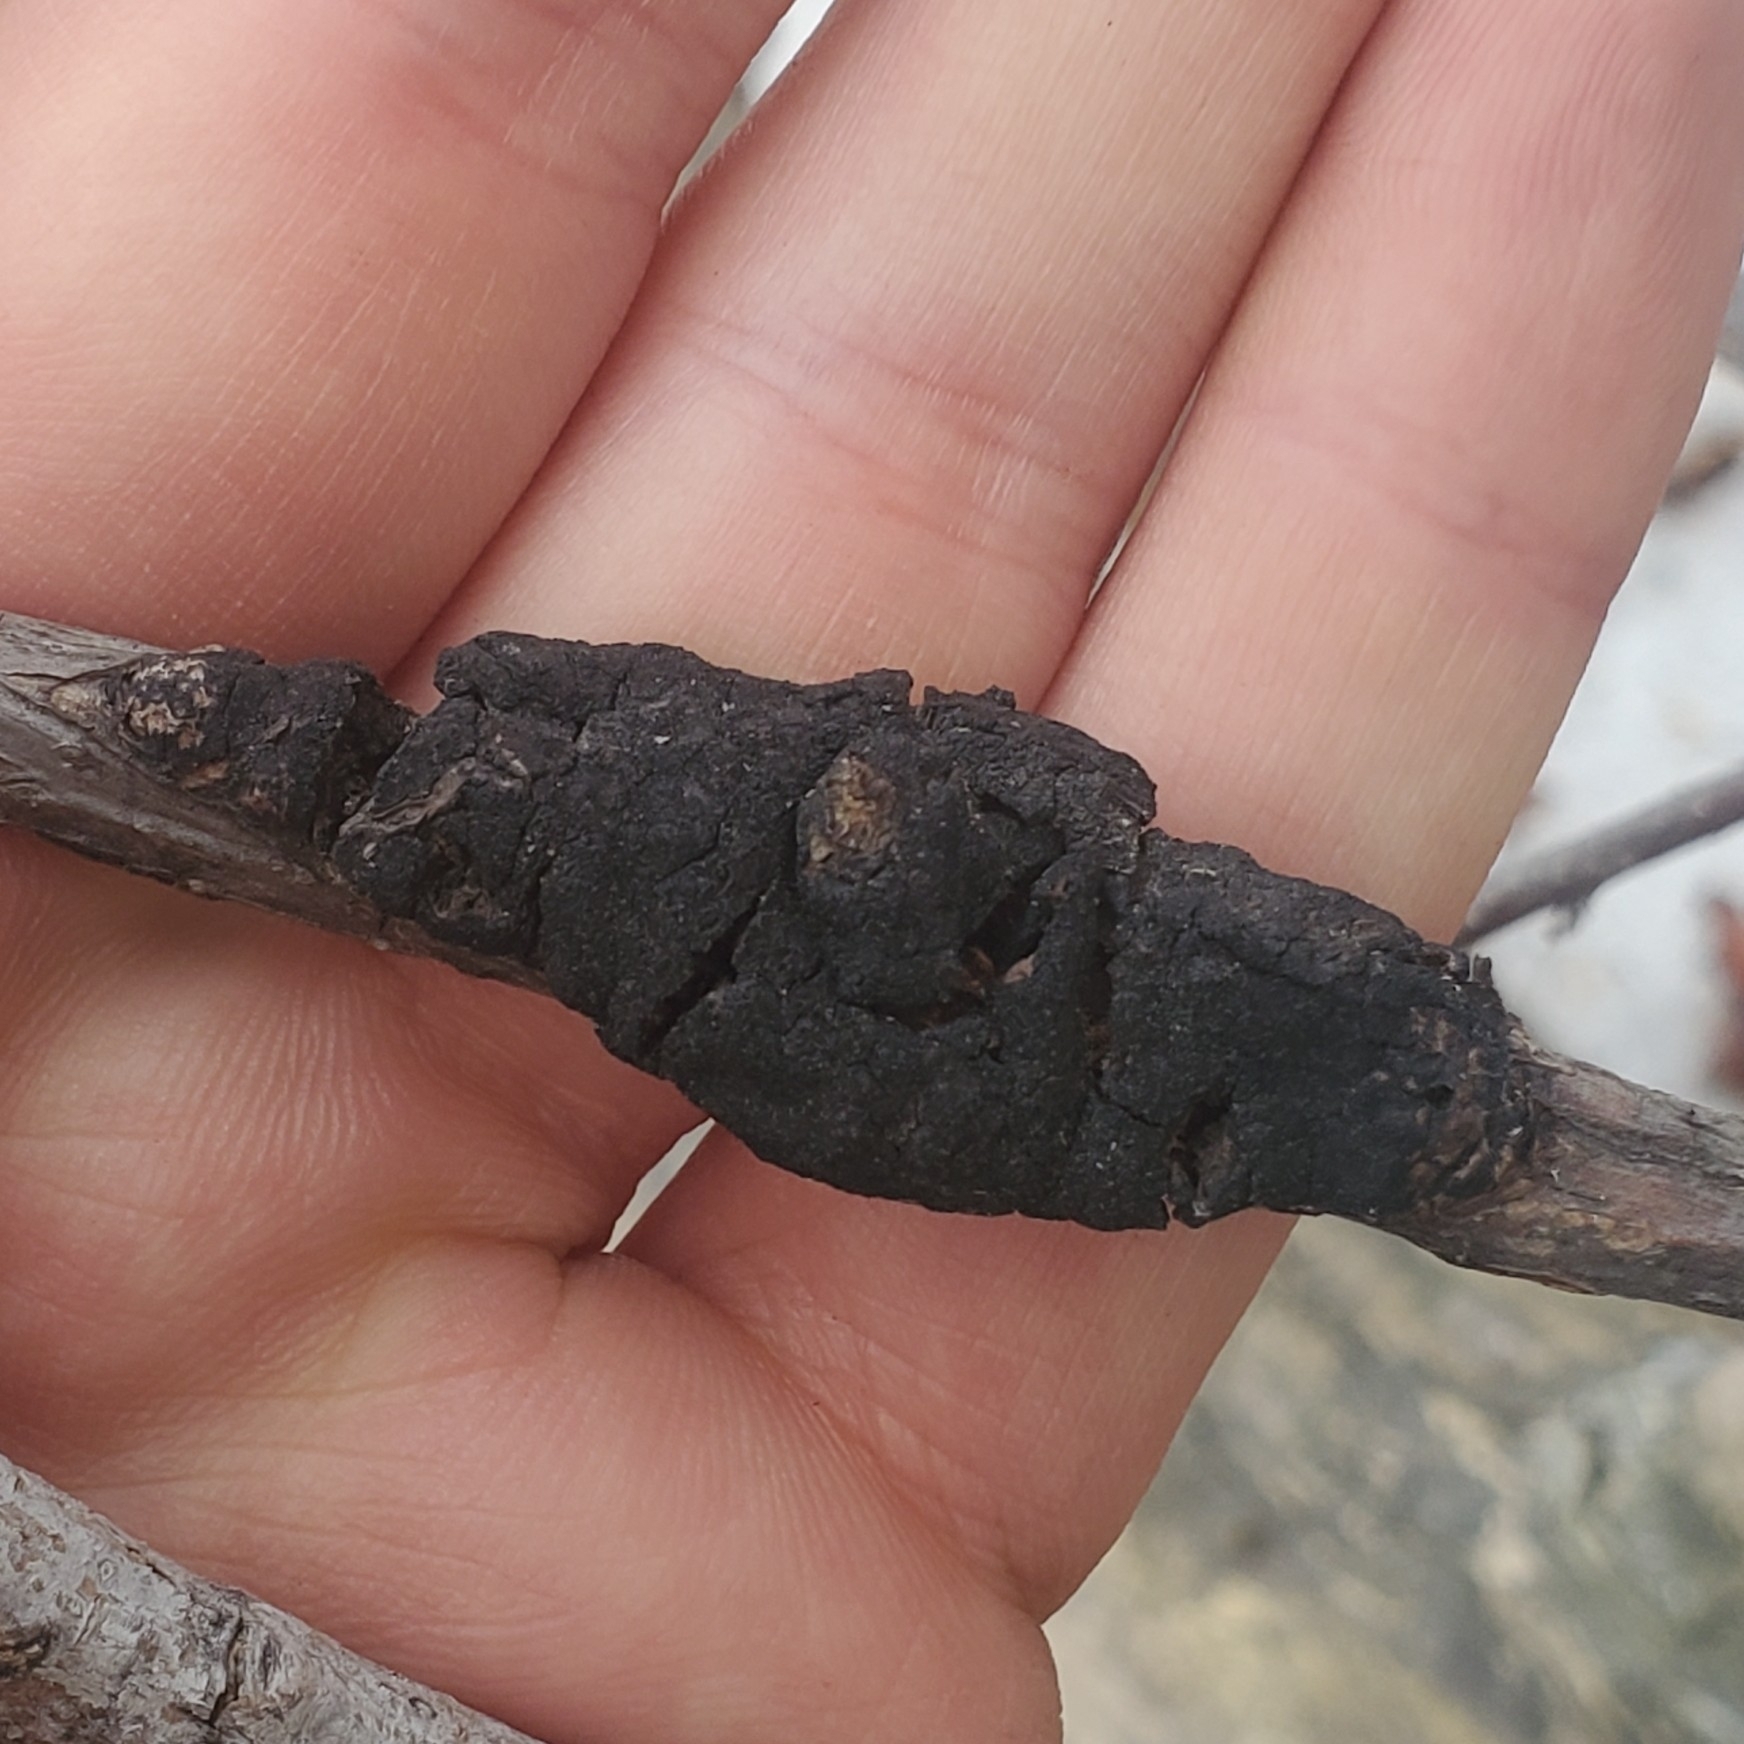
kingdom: Fungi
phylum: Ascomycota
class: Dothideomycetes
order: Venturiales
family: Venturiaceae
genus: Apiosporina
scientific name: Apiosporina morbosa
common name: Black knot
